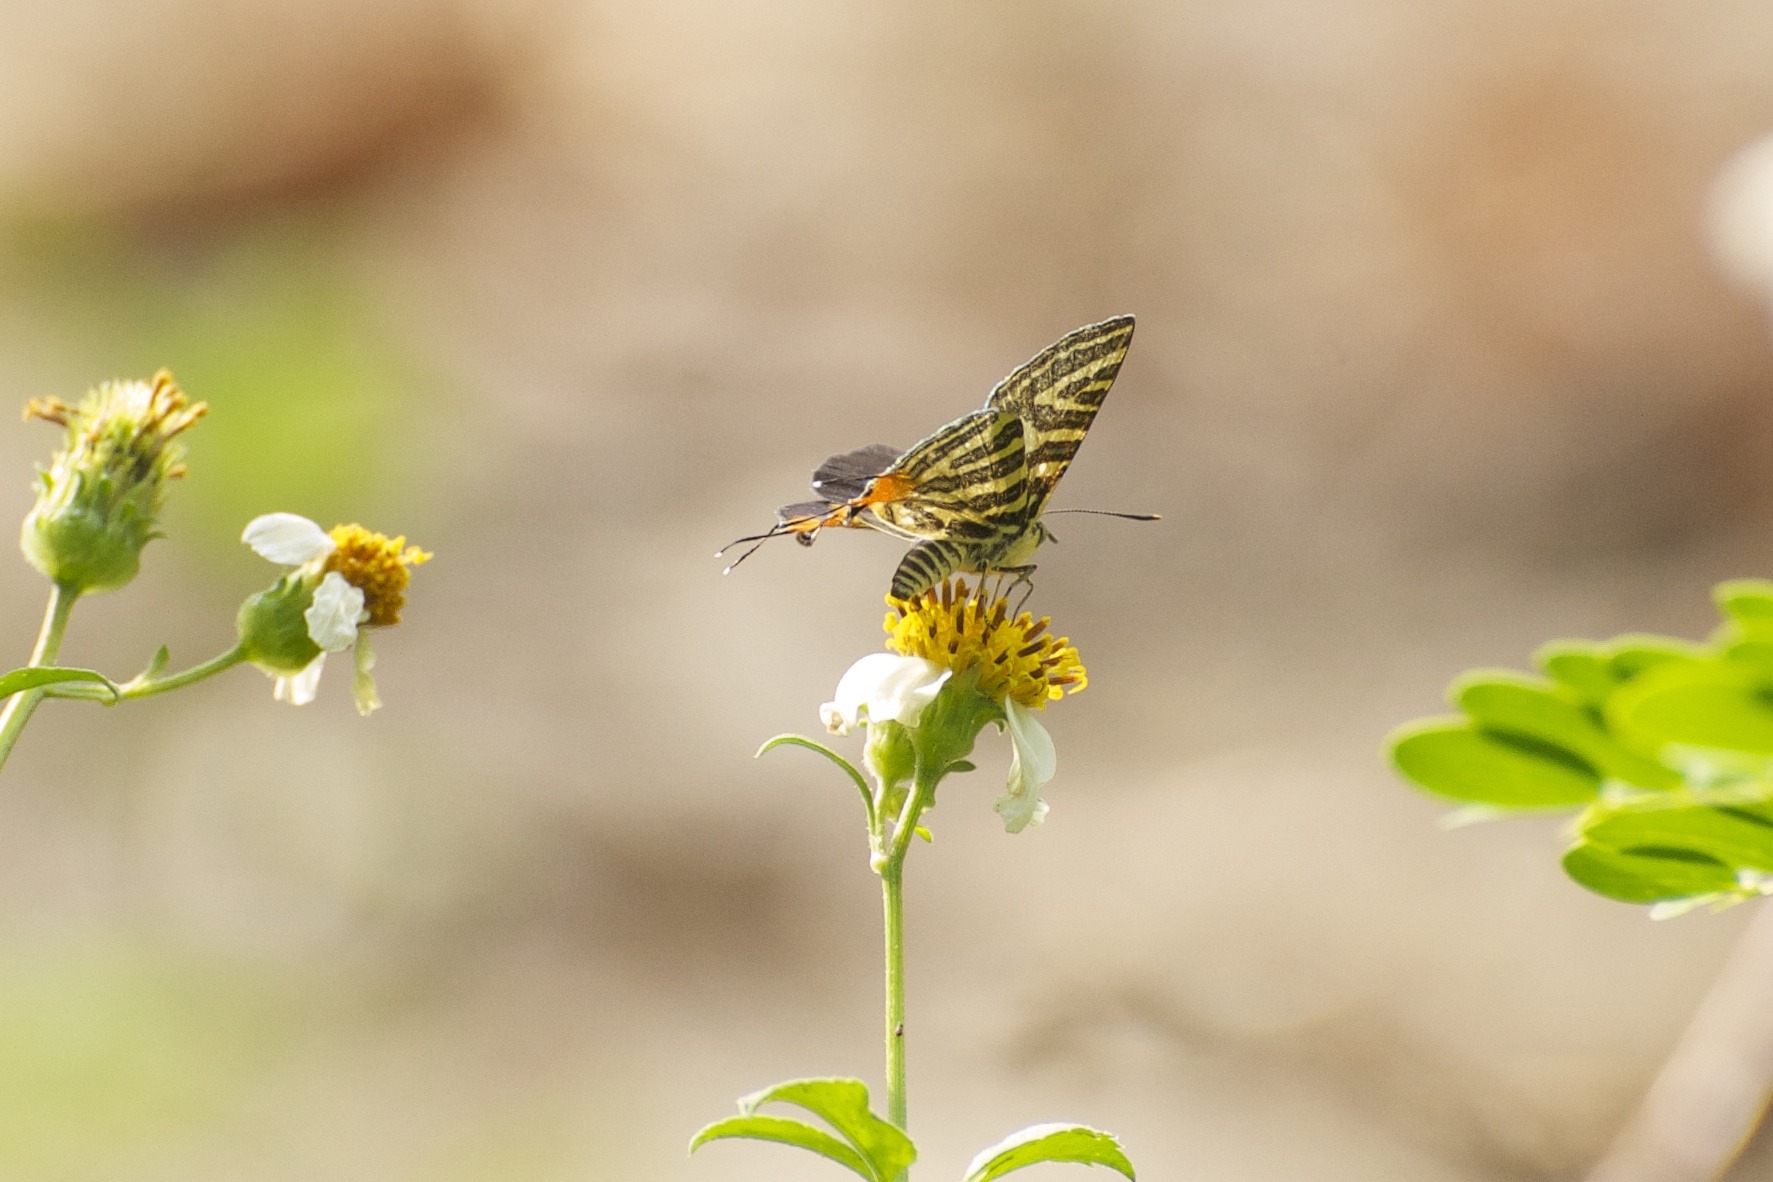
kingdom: Animalia
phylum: Arthropoda
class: Insecta
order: Lepidoptera
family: Lycaenidae
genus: Cigaritis
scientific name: Cigaritis lohita
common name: Long-banded silverline
